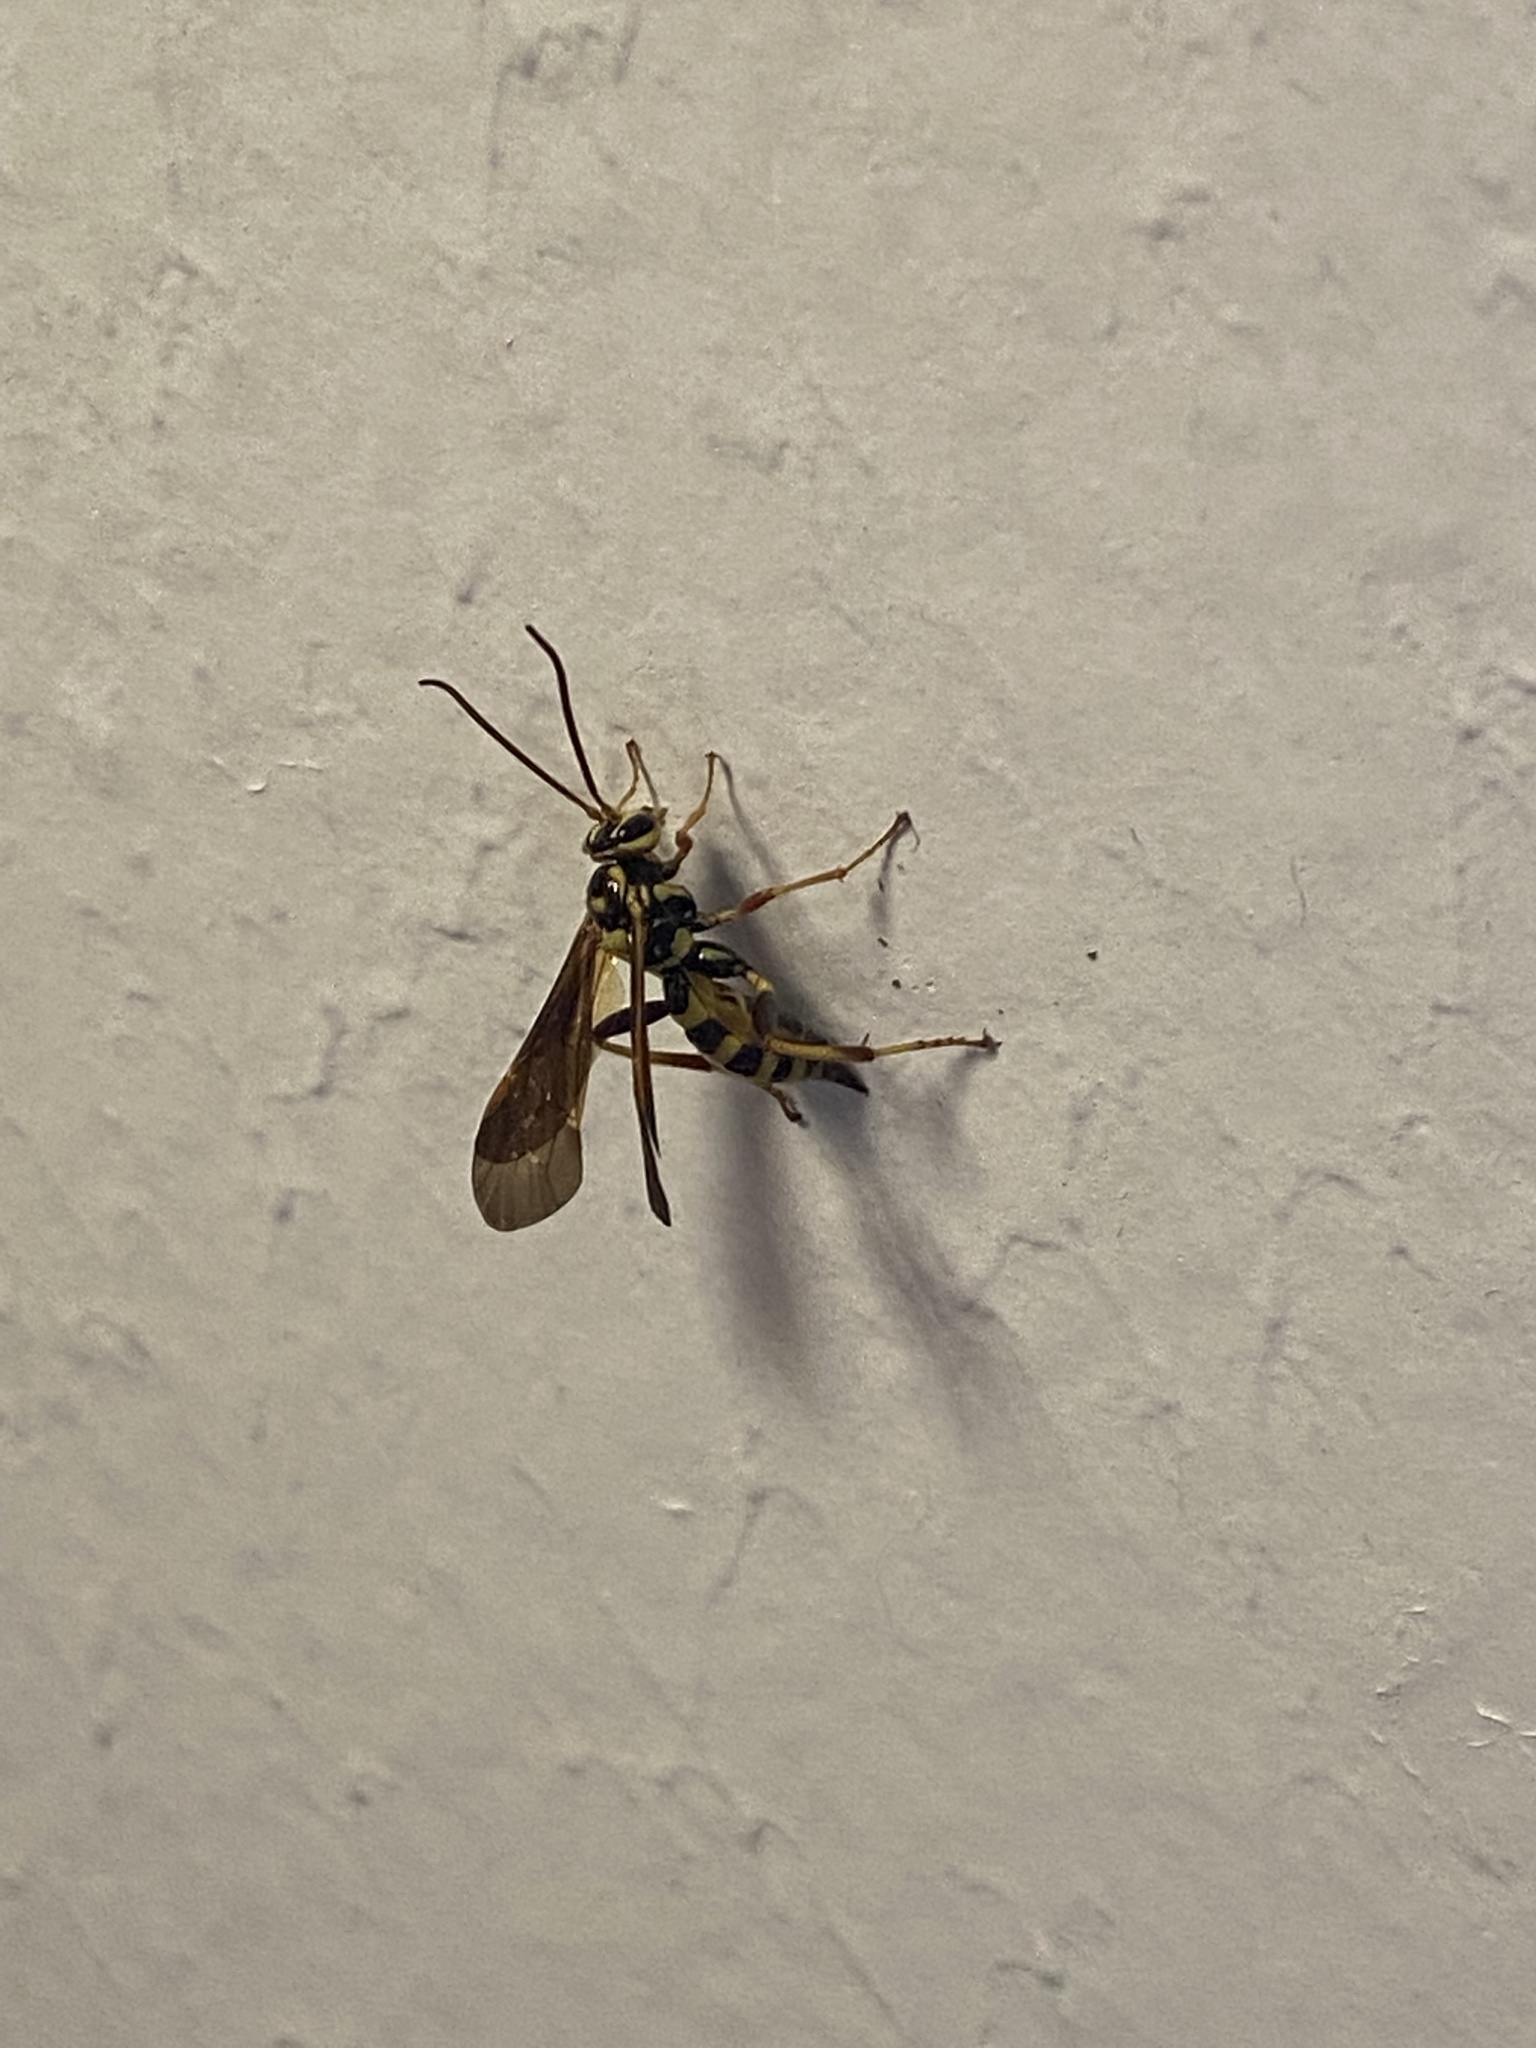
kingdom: Animalia
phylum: Arthropoda
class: Insecta
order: Hymenoptera
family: Ichneumonidae
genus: Ceratogastra
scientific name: Ceratogastra ornata
